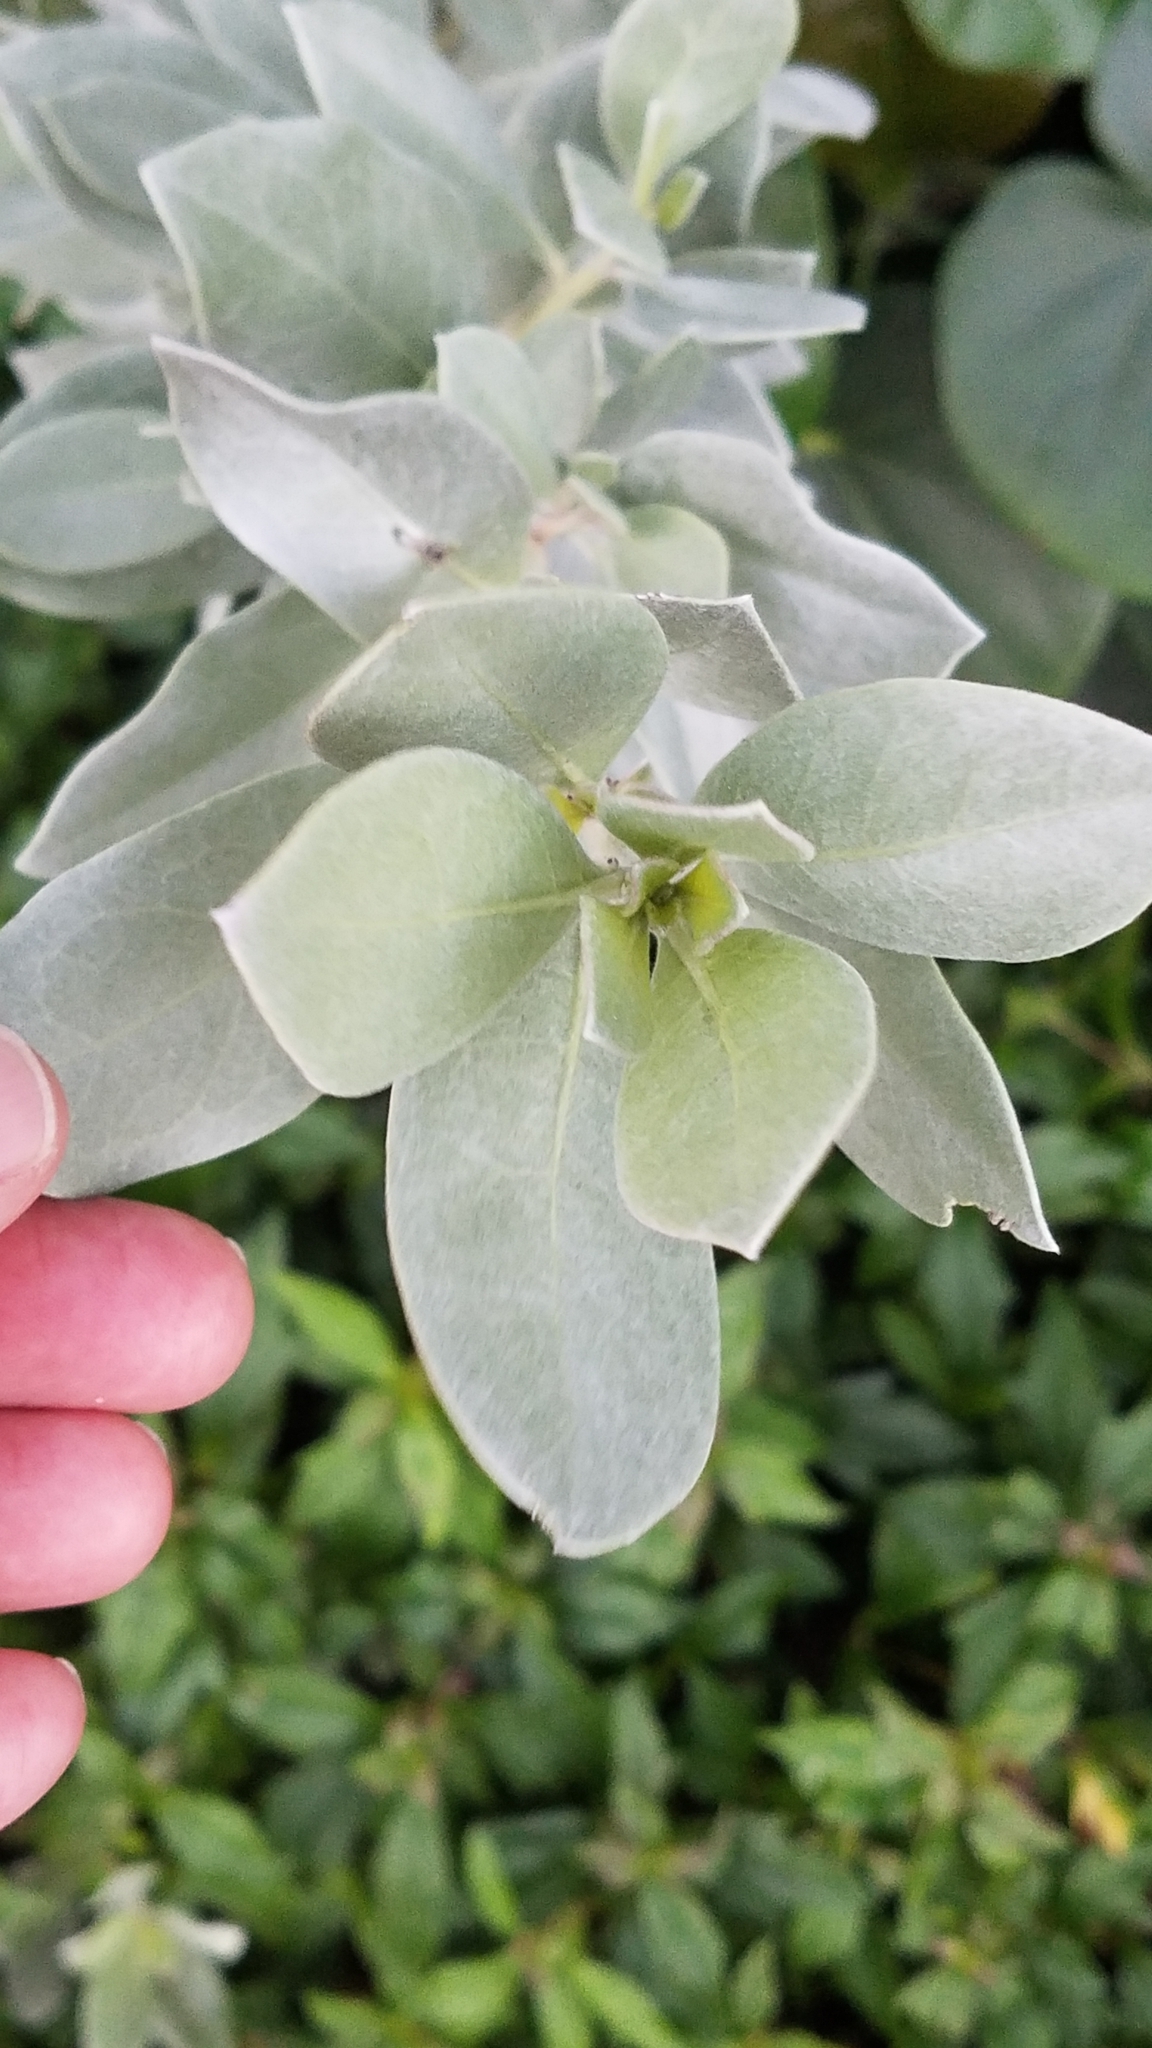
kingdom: Plantae
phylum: Tracheophyta
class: Magnoliopsida
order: Myrtales
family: Combretaceae
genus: Conocarpus
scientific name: Conocarpus erectus
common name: Button mangrove
